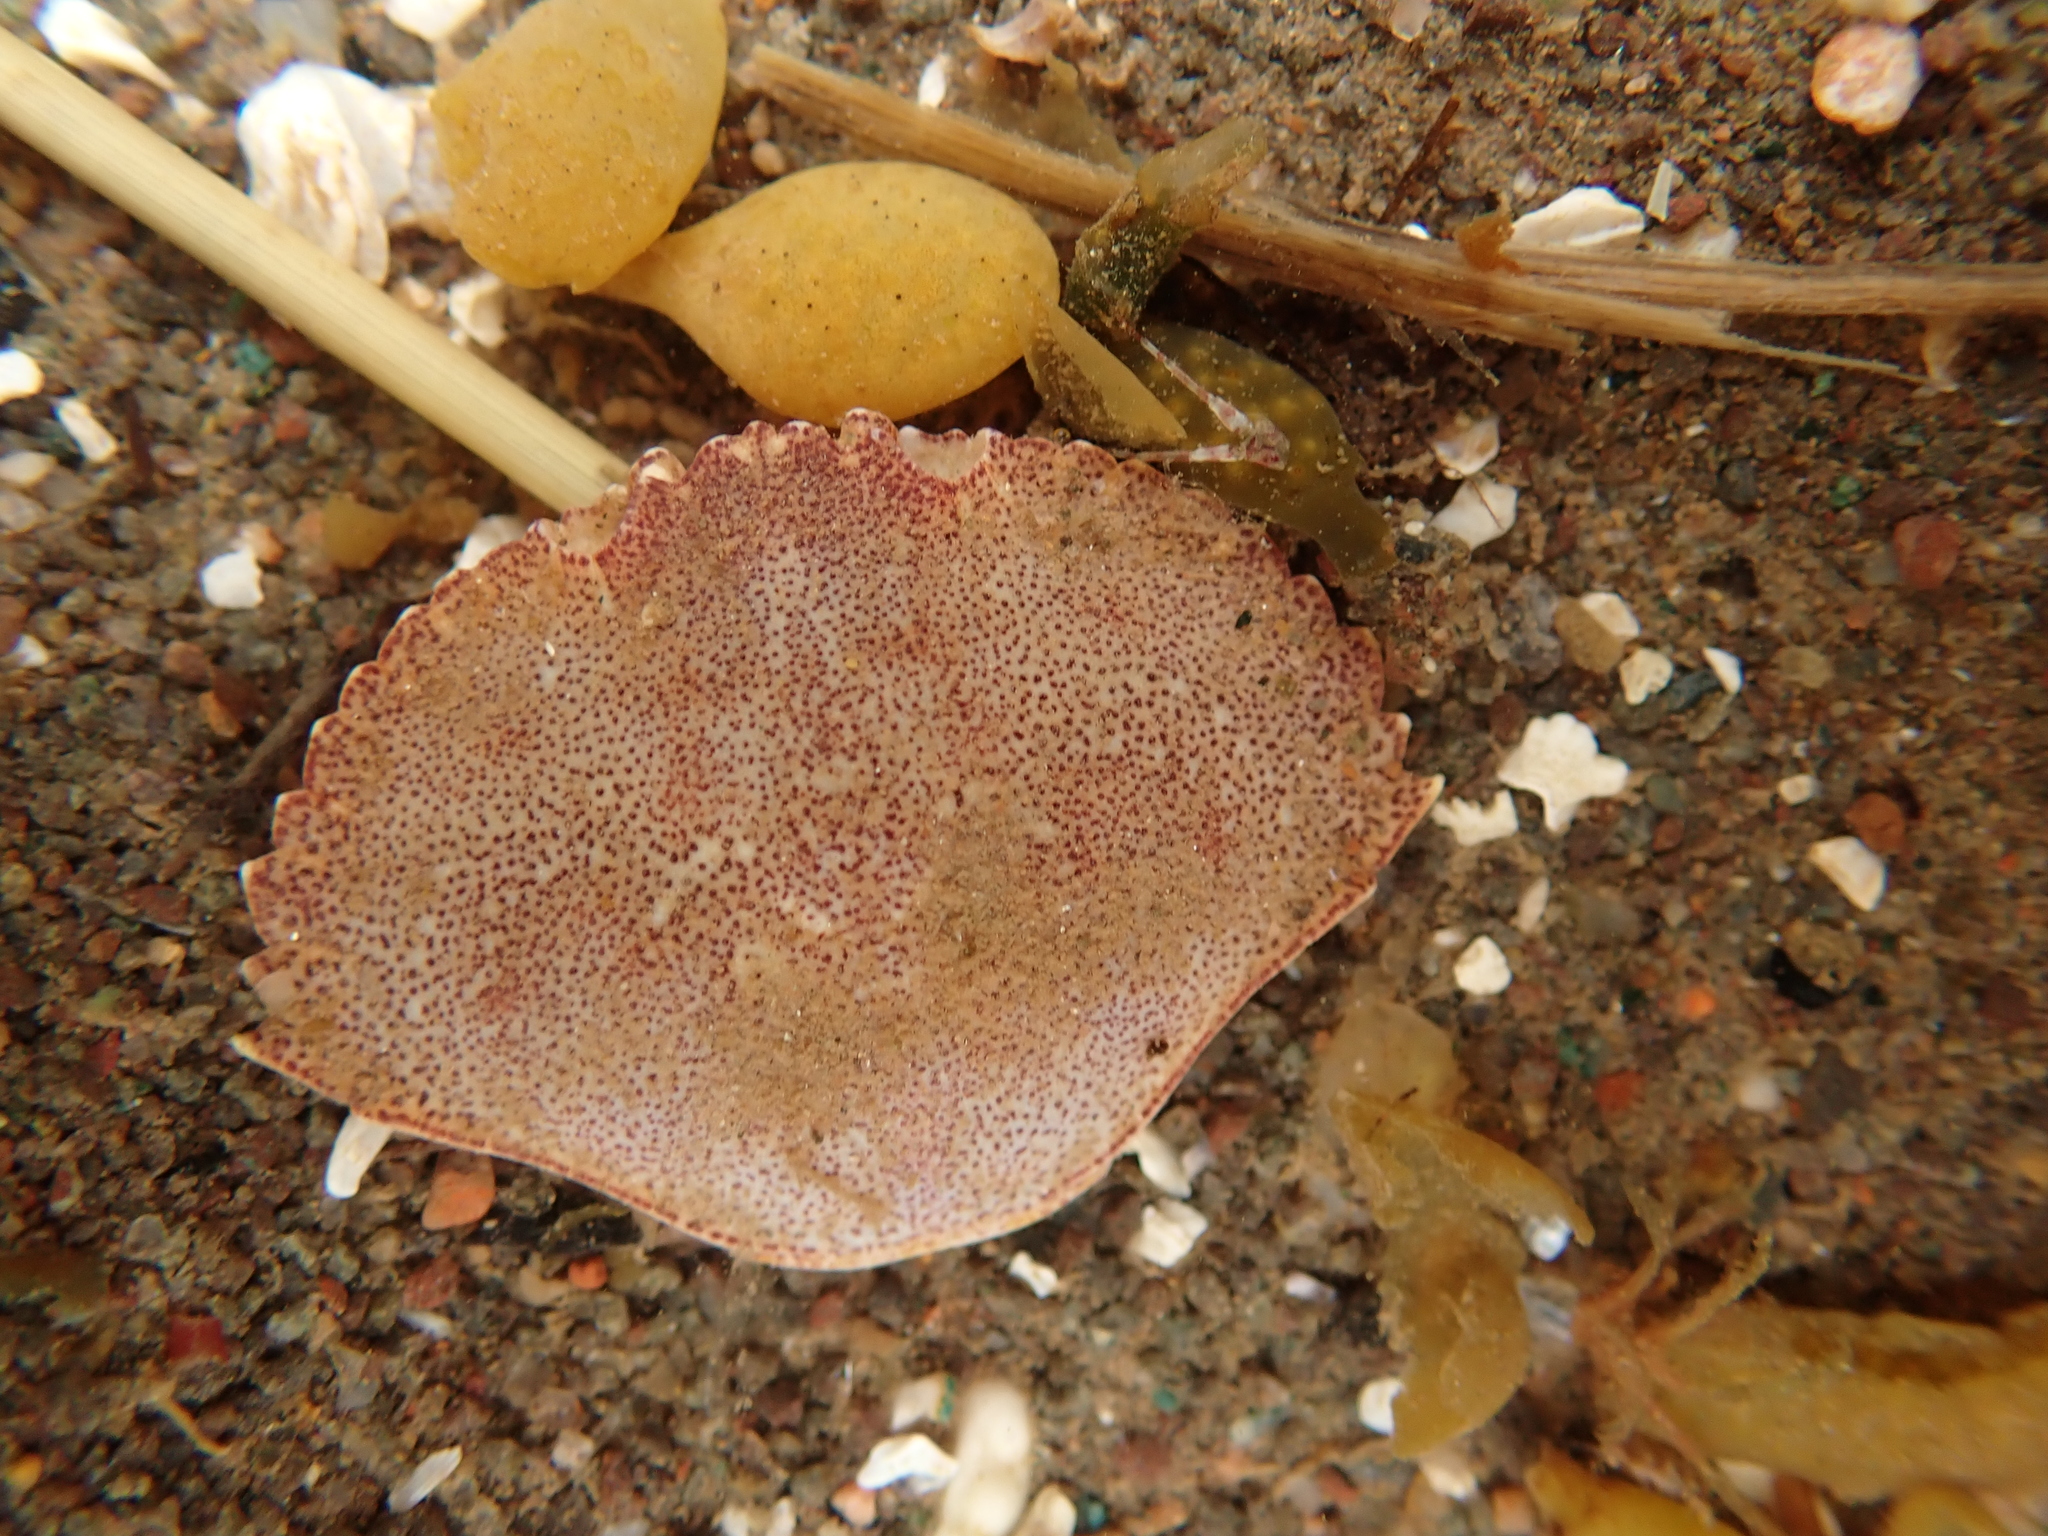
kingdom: Animalia
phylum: Arthropoda
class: Malacostraca
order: Decapoda
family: Cancridae
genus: Cancer
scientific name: Cancer irroratus
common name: Atlantic rock crab
